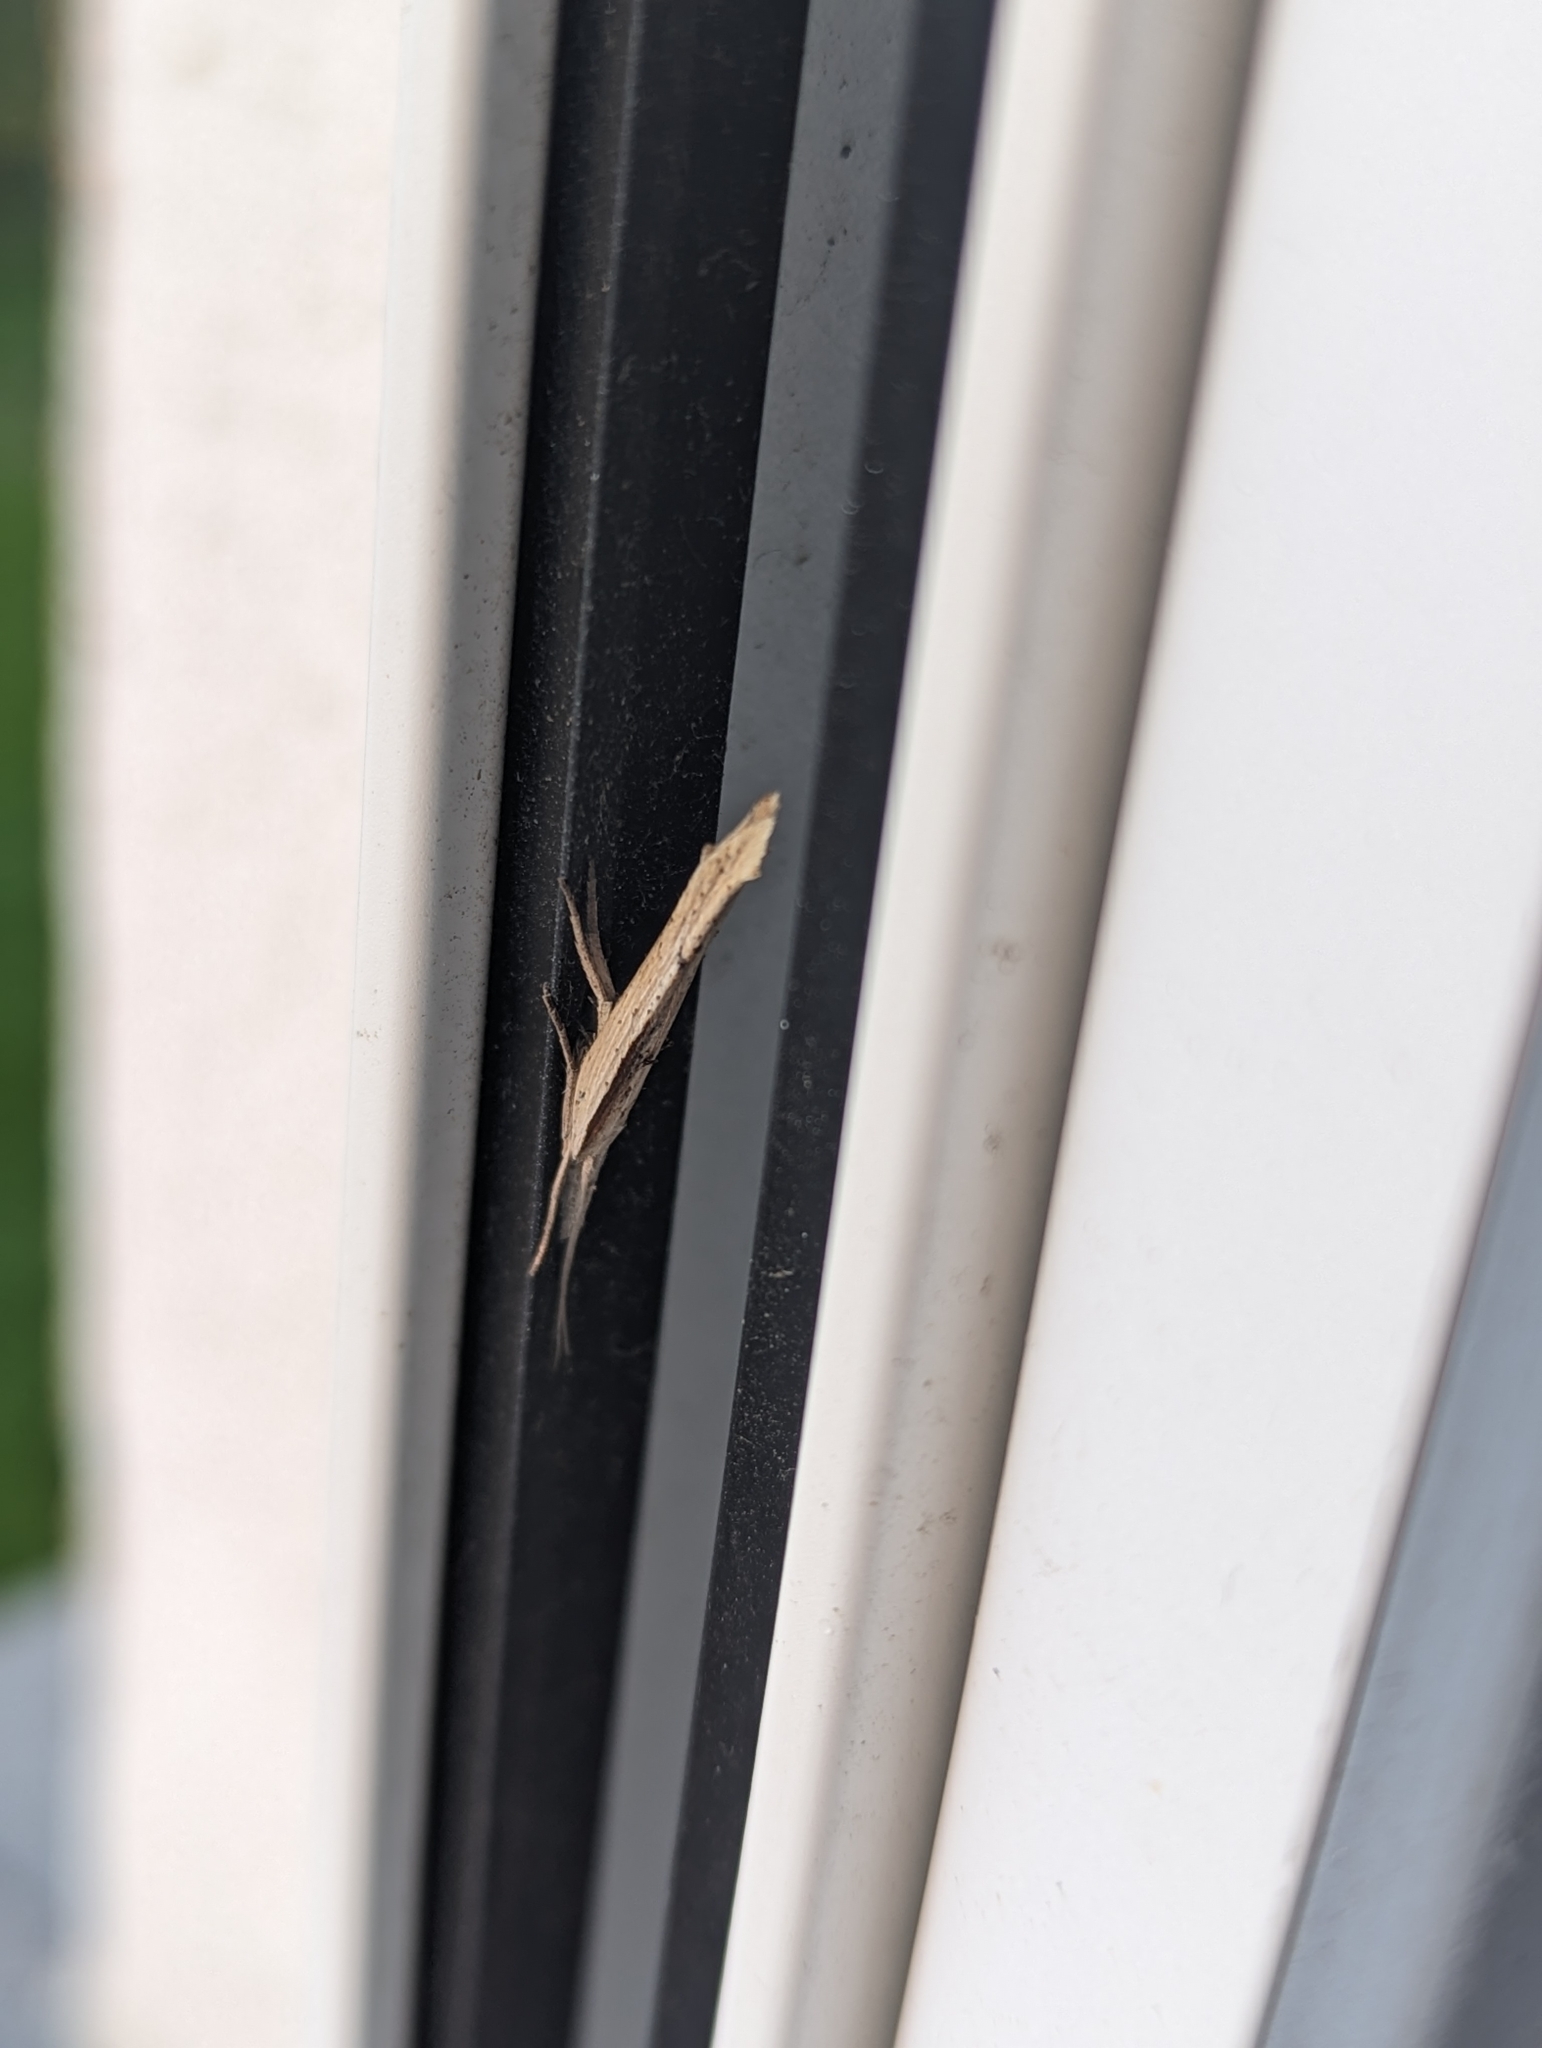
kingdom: Animalia
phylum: Arthropoda
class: Insecta
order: Lepidoptera
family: Plutellidae
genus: Plutella
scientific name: Plutella xylostella
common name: Diamond-back moth
